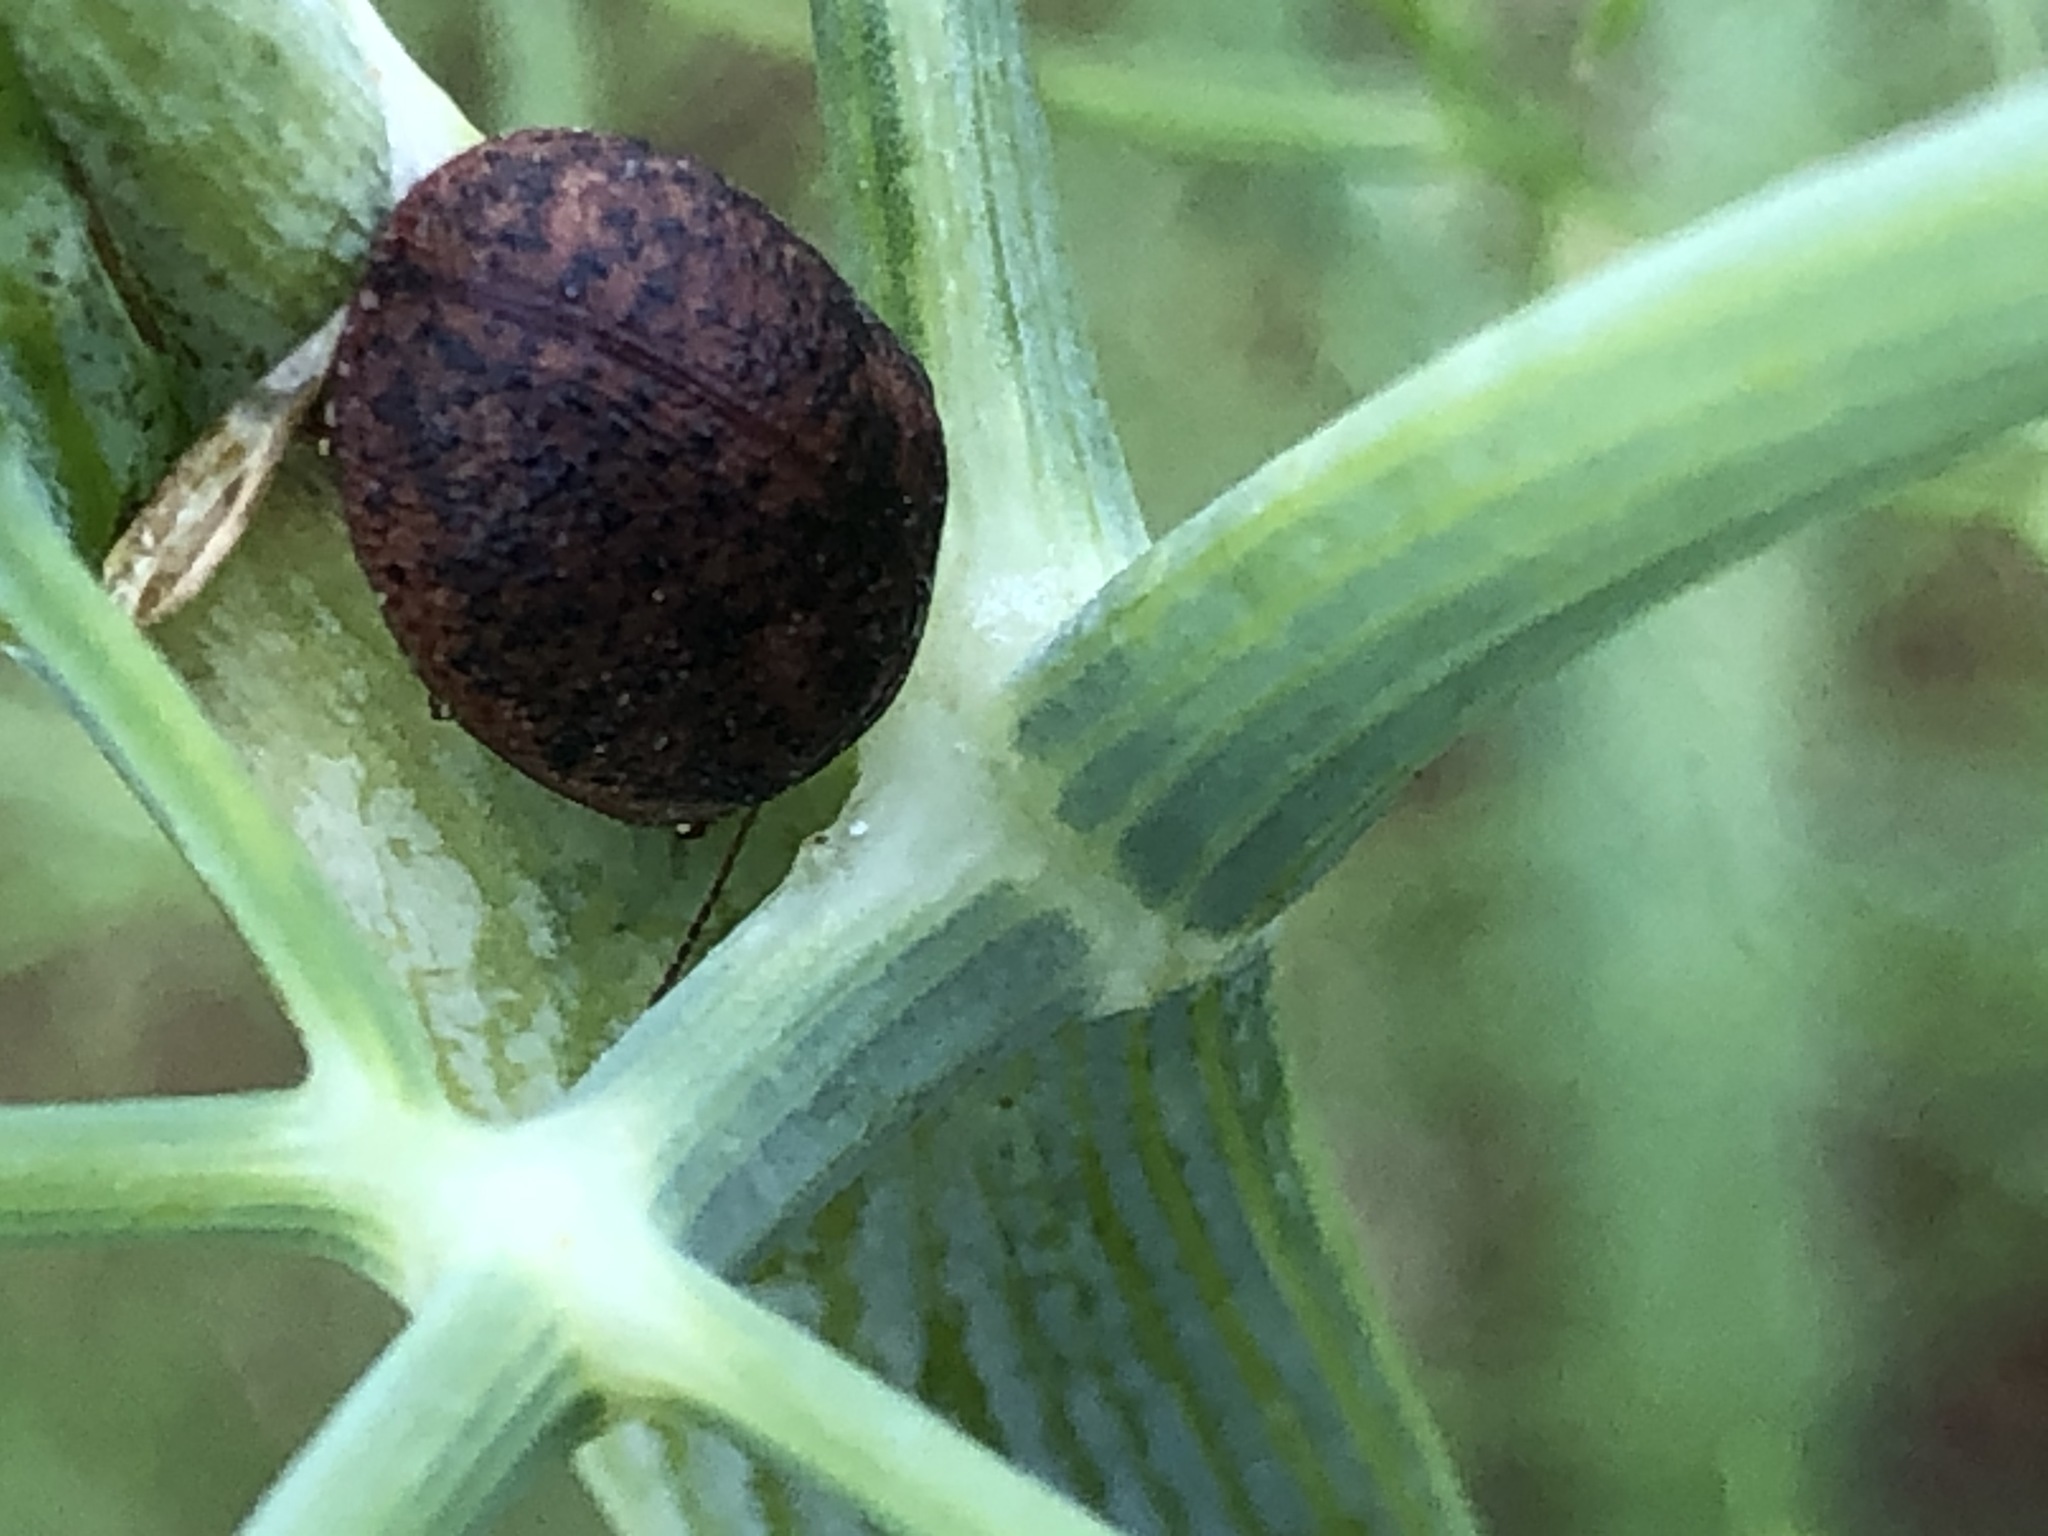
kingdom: Animalia
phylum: Arthropoda
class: Insecta
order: Coleoptera
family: Chrysomelidae
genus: Trachymela
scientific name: Trachymela sloanei
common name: Australian tortoise beetle
